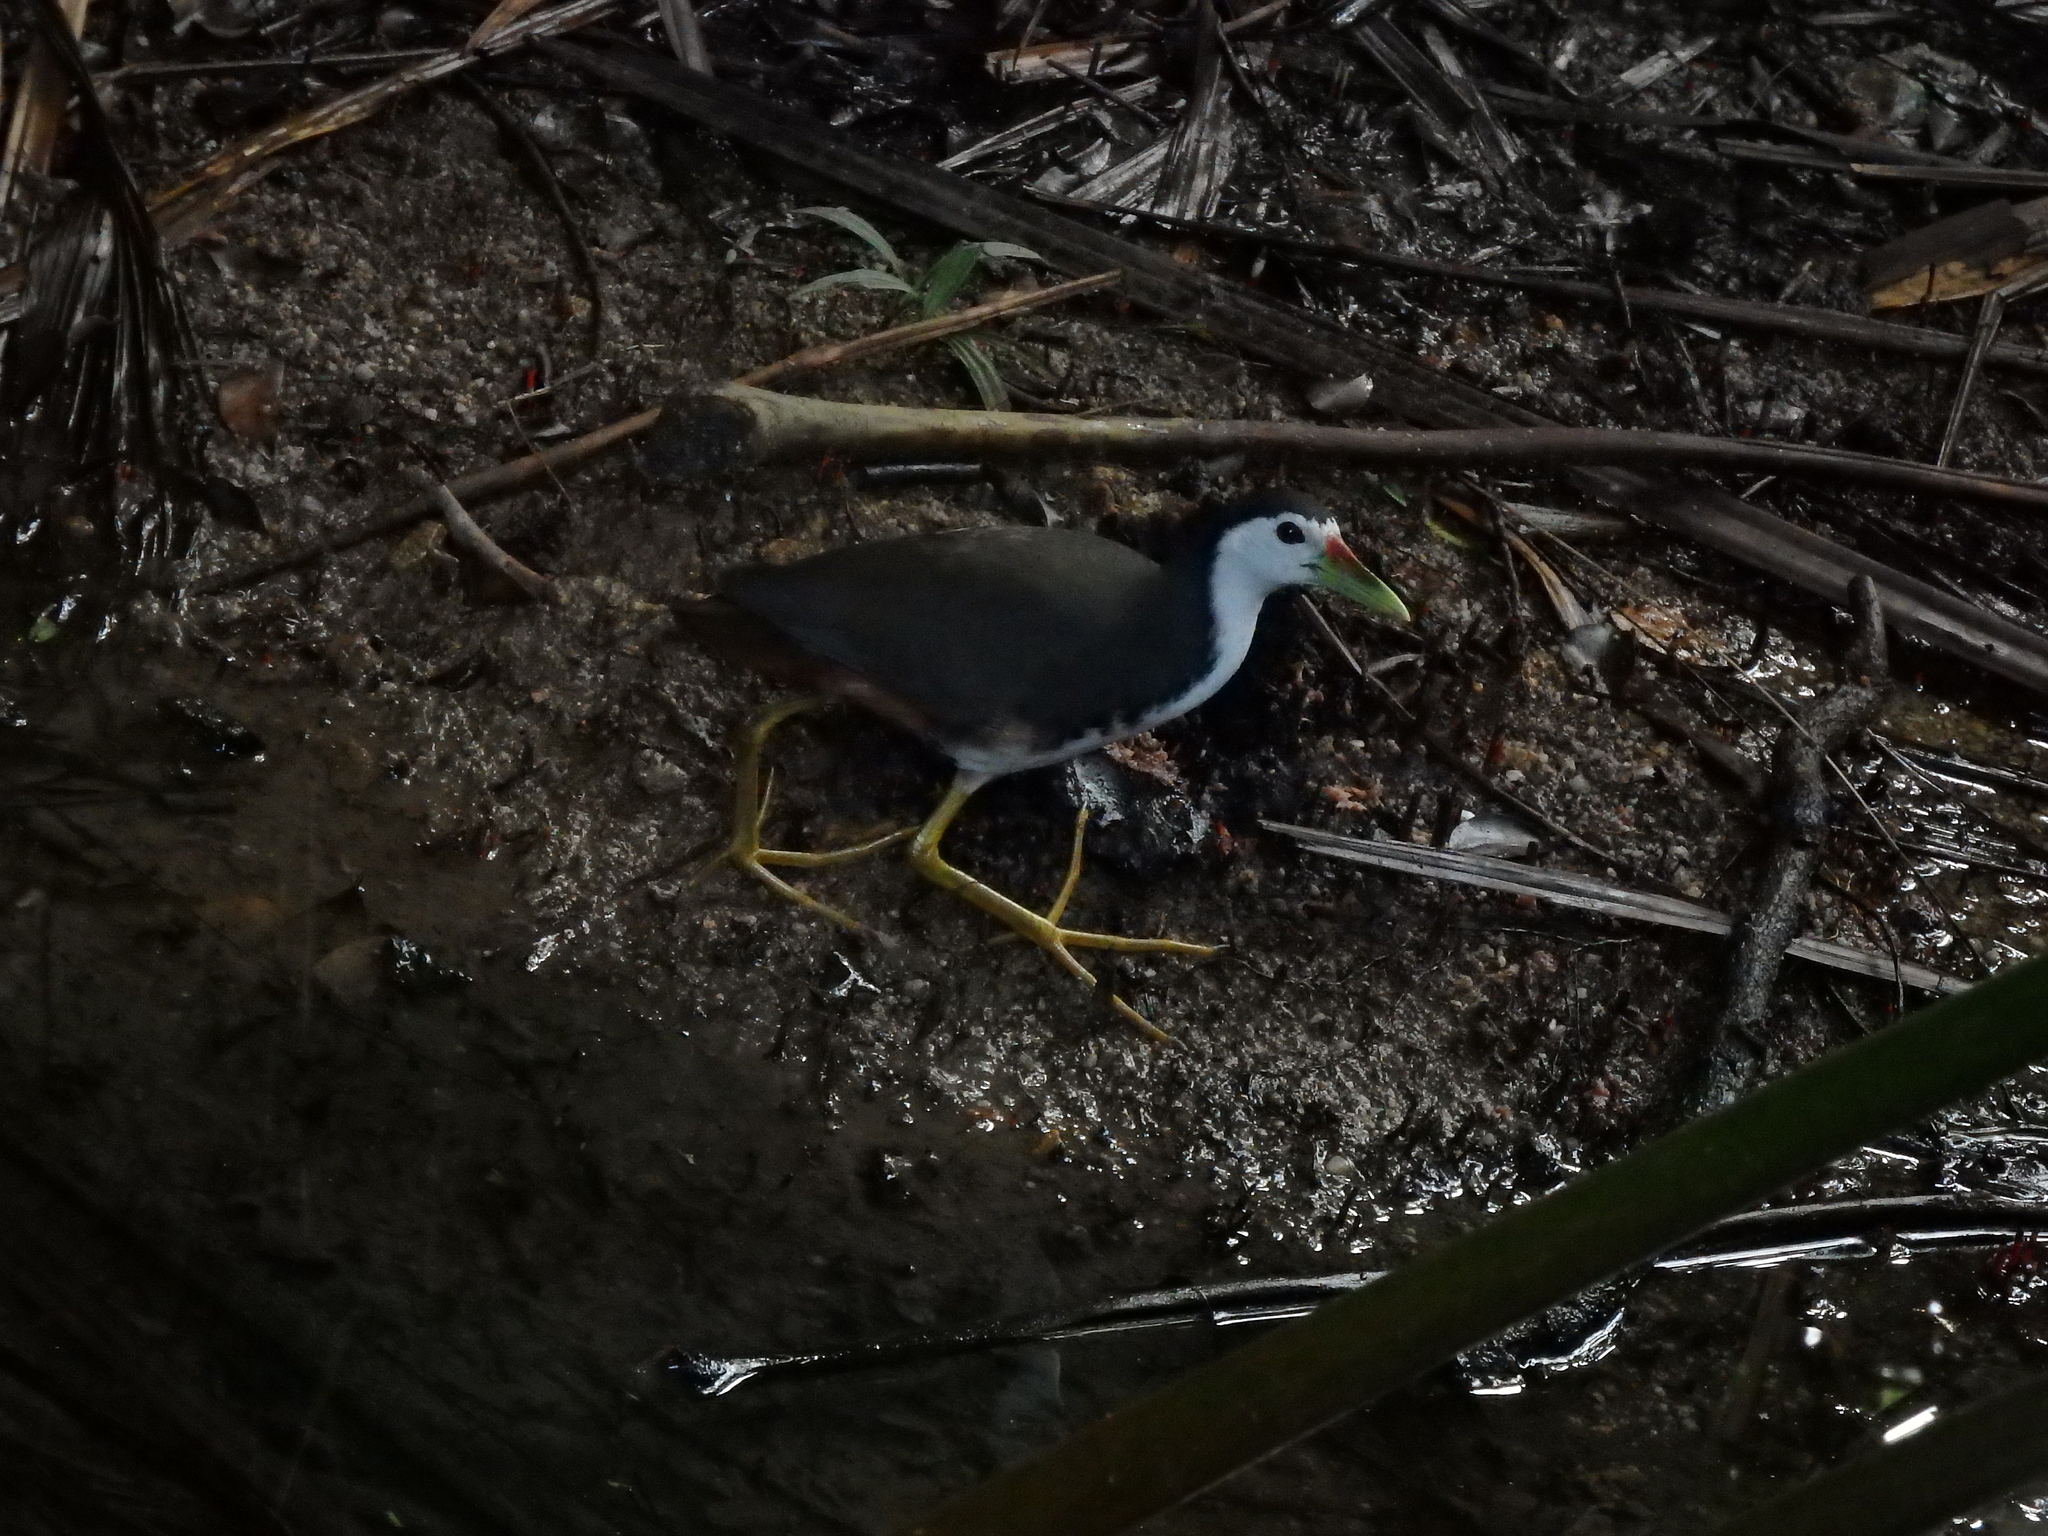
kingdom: Animalia
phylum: Chordata
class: Aves
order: Gruiformes
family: Rallidae
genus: Amaurornis
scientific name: Amaurornis phoenicurus
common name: White-breasted waterhen
